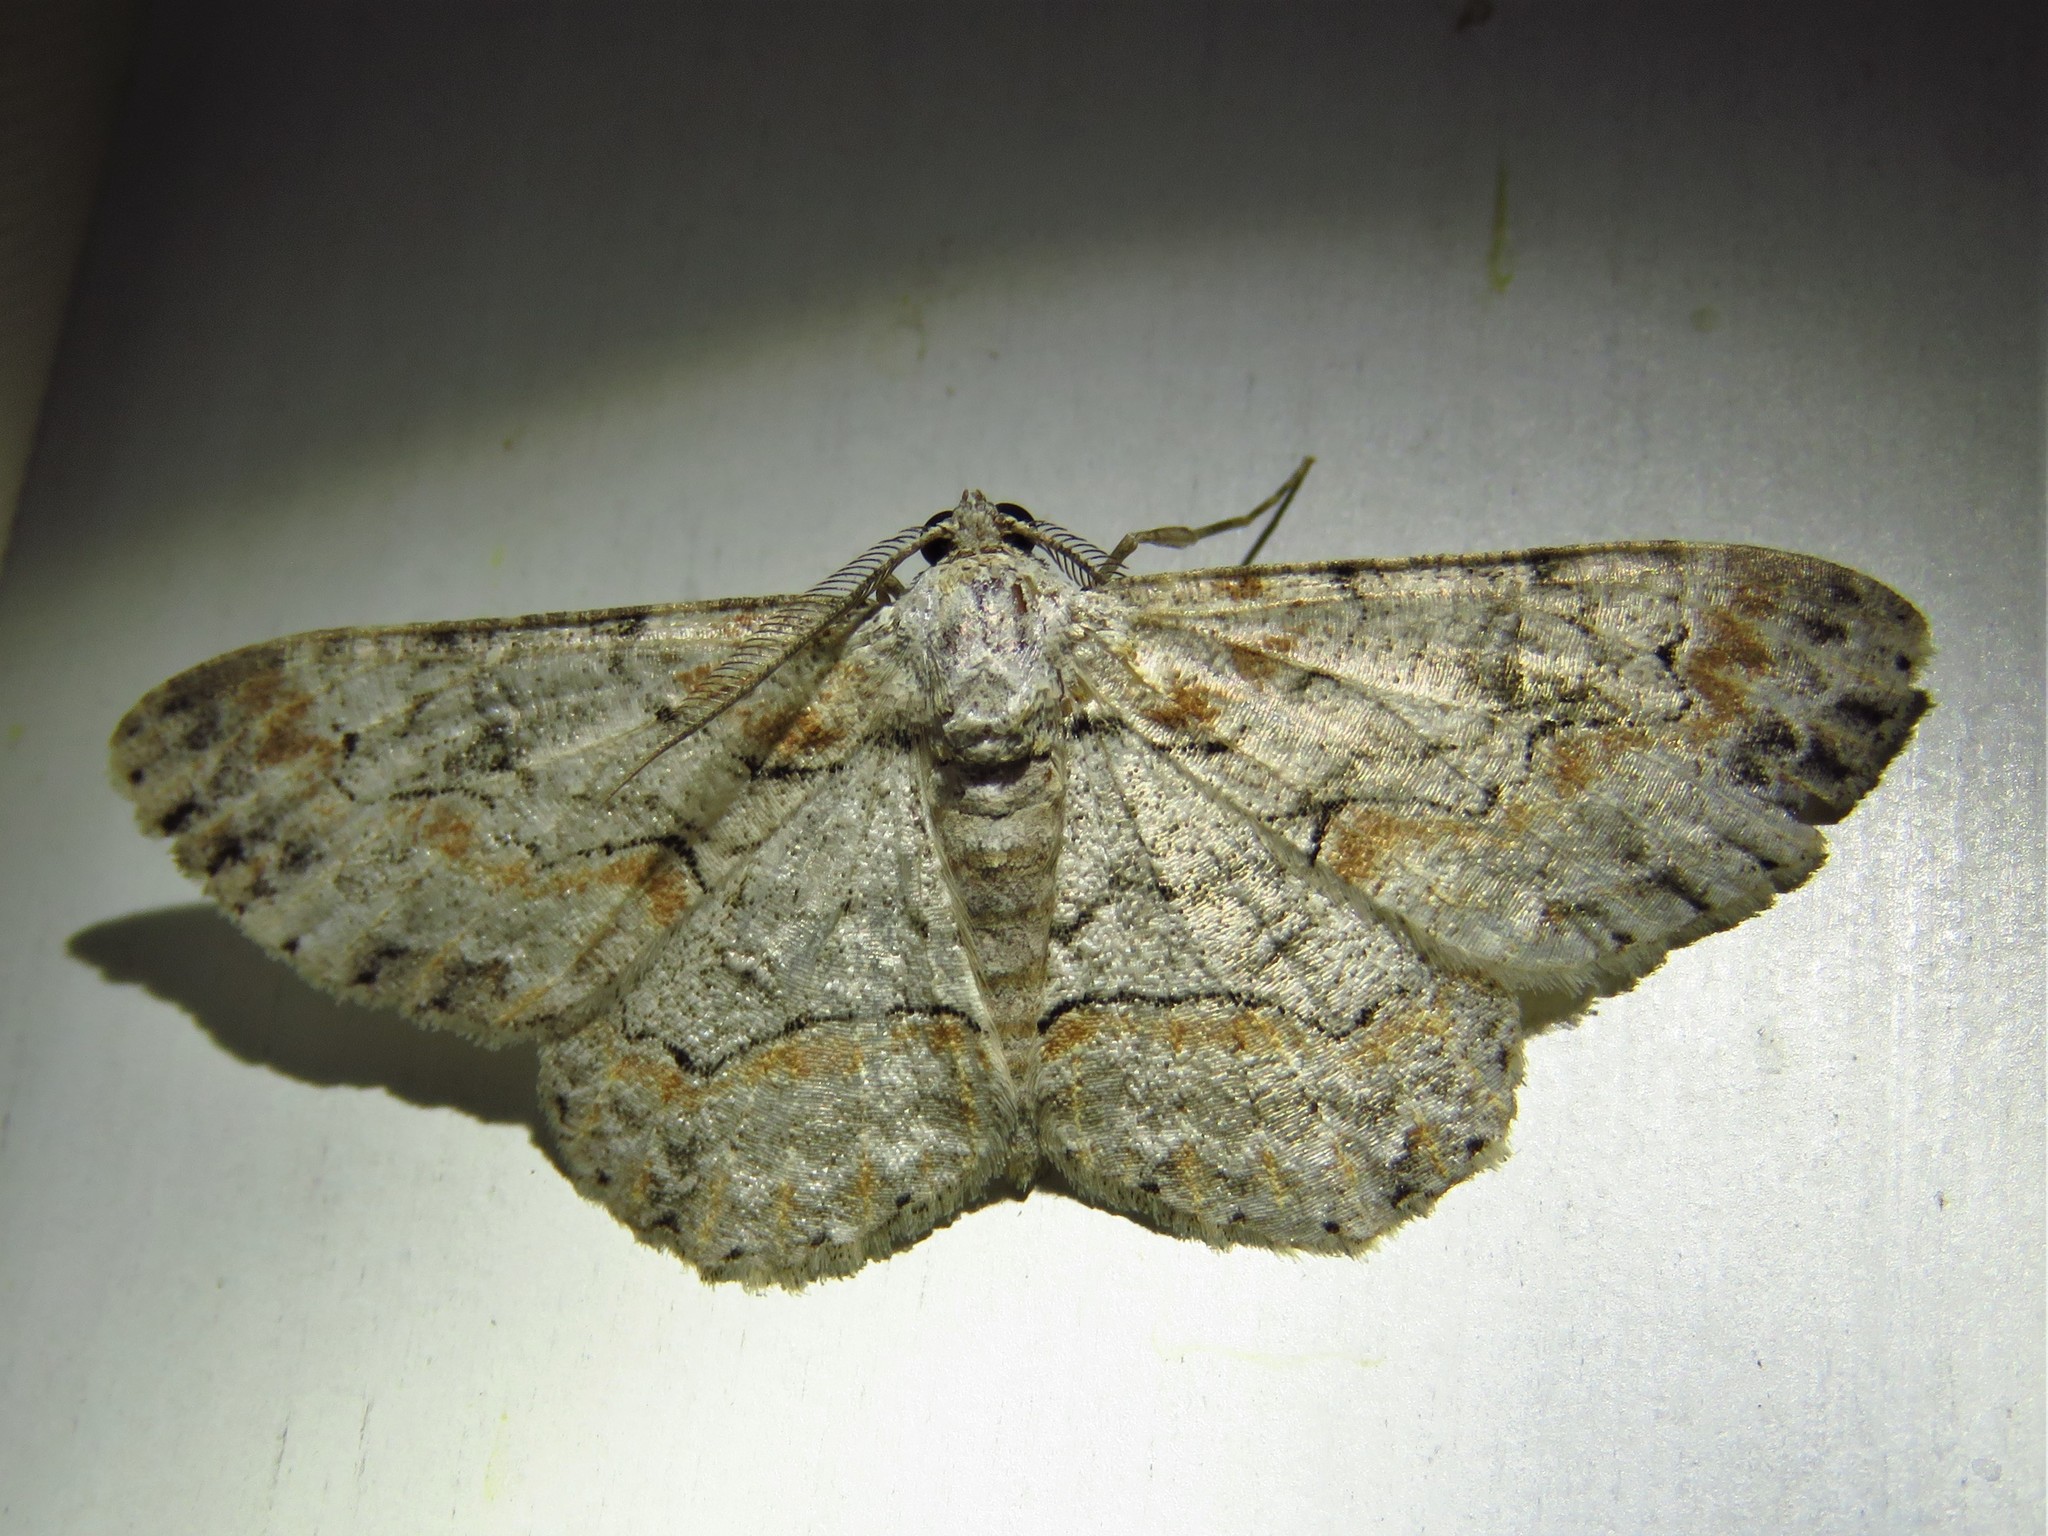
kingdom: Animalia
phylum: Arthropoda
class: Insecta
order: Lepidoptera
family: Geometridae
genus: Iridopsis
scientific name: Iridopsis defectaria
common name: Brown-shaded gray
